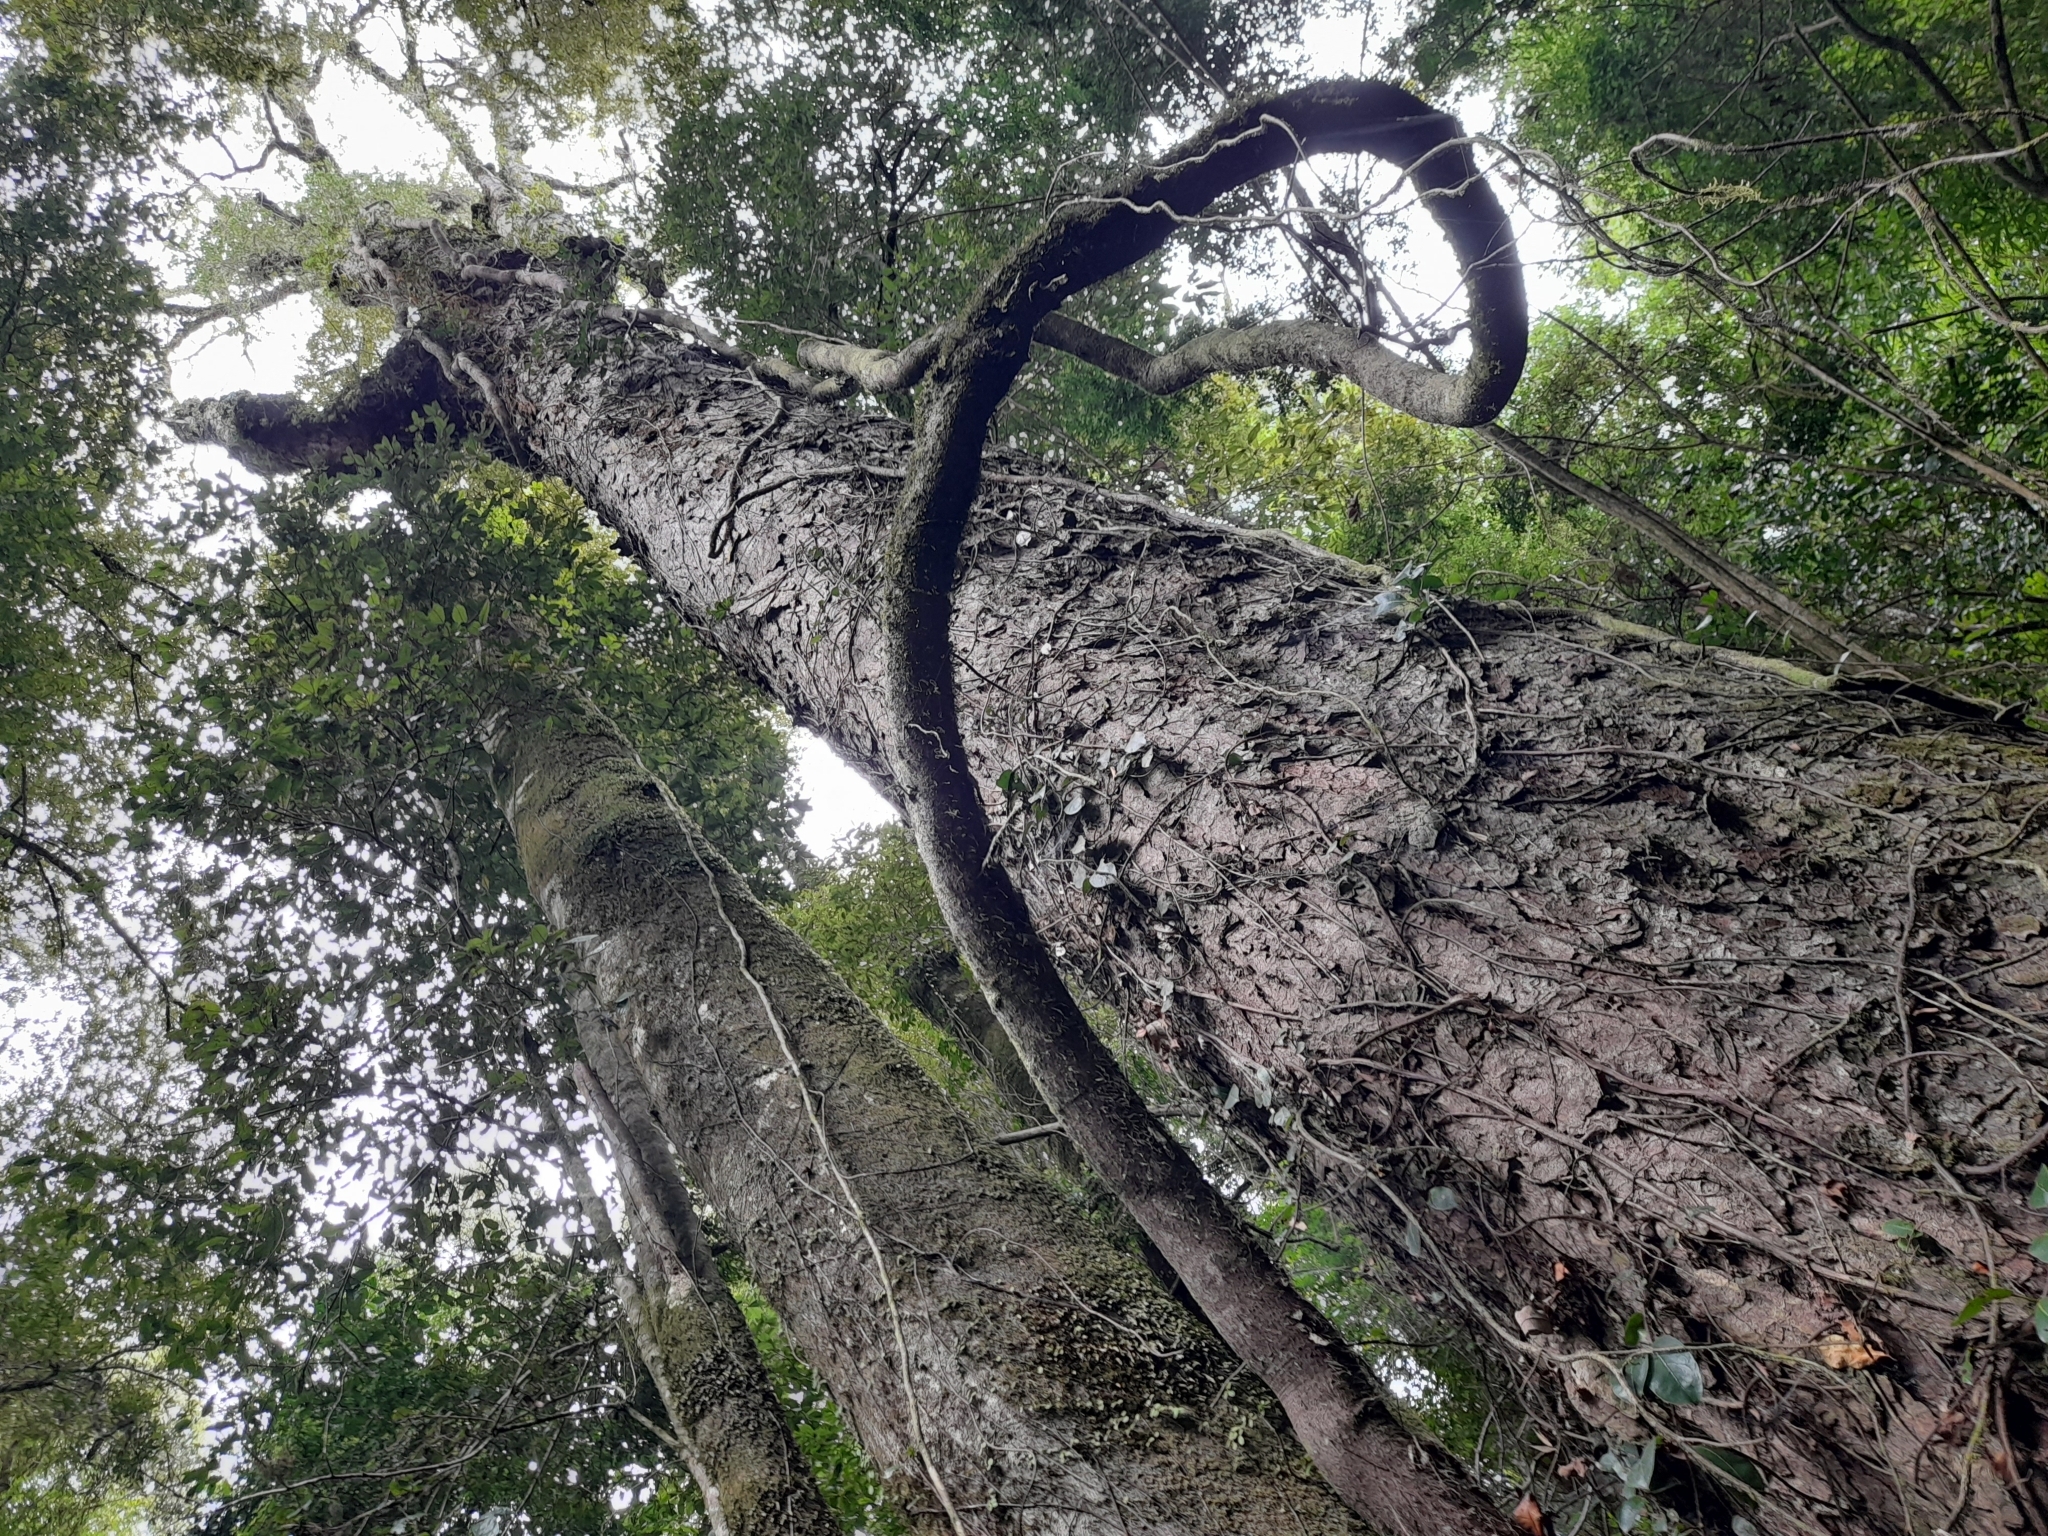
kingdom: Plantae
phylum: Tracheophyta
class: Magnoliopsida
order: Cornales
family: Hydrangeaceae
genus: Hydrangea
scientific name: Hydrangea serratifolia
